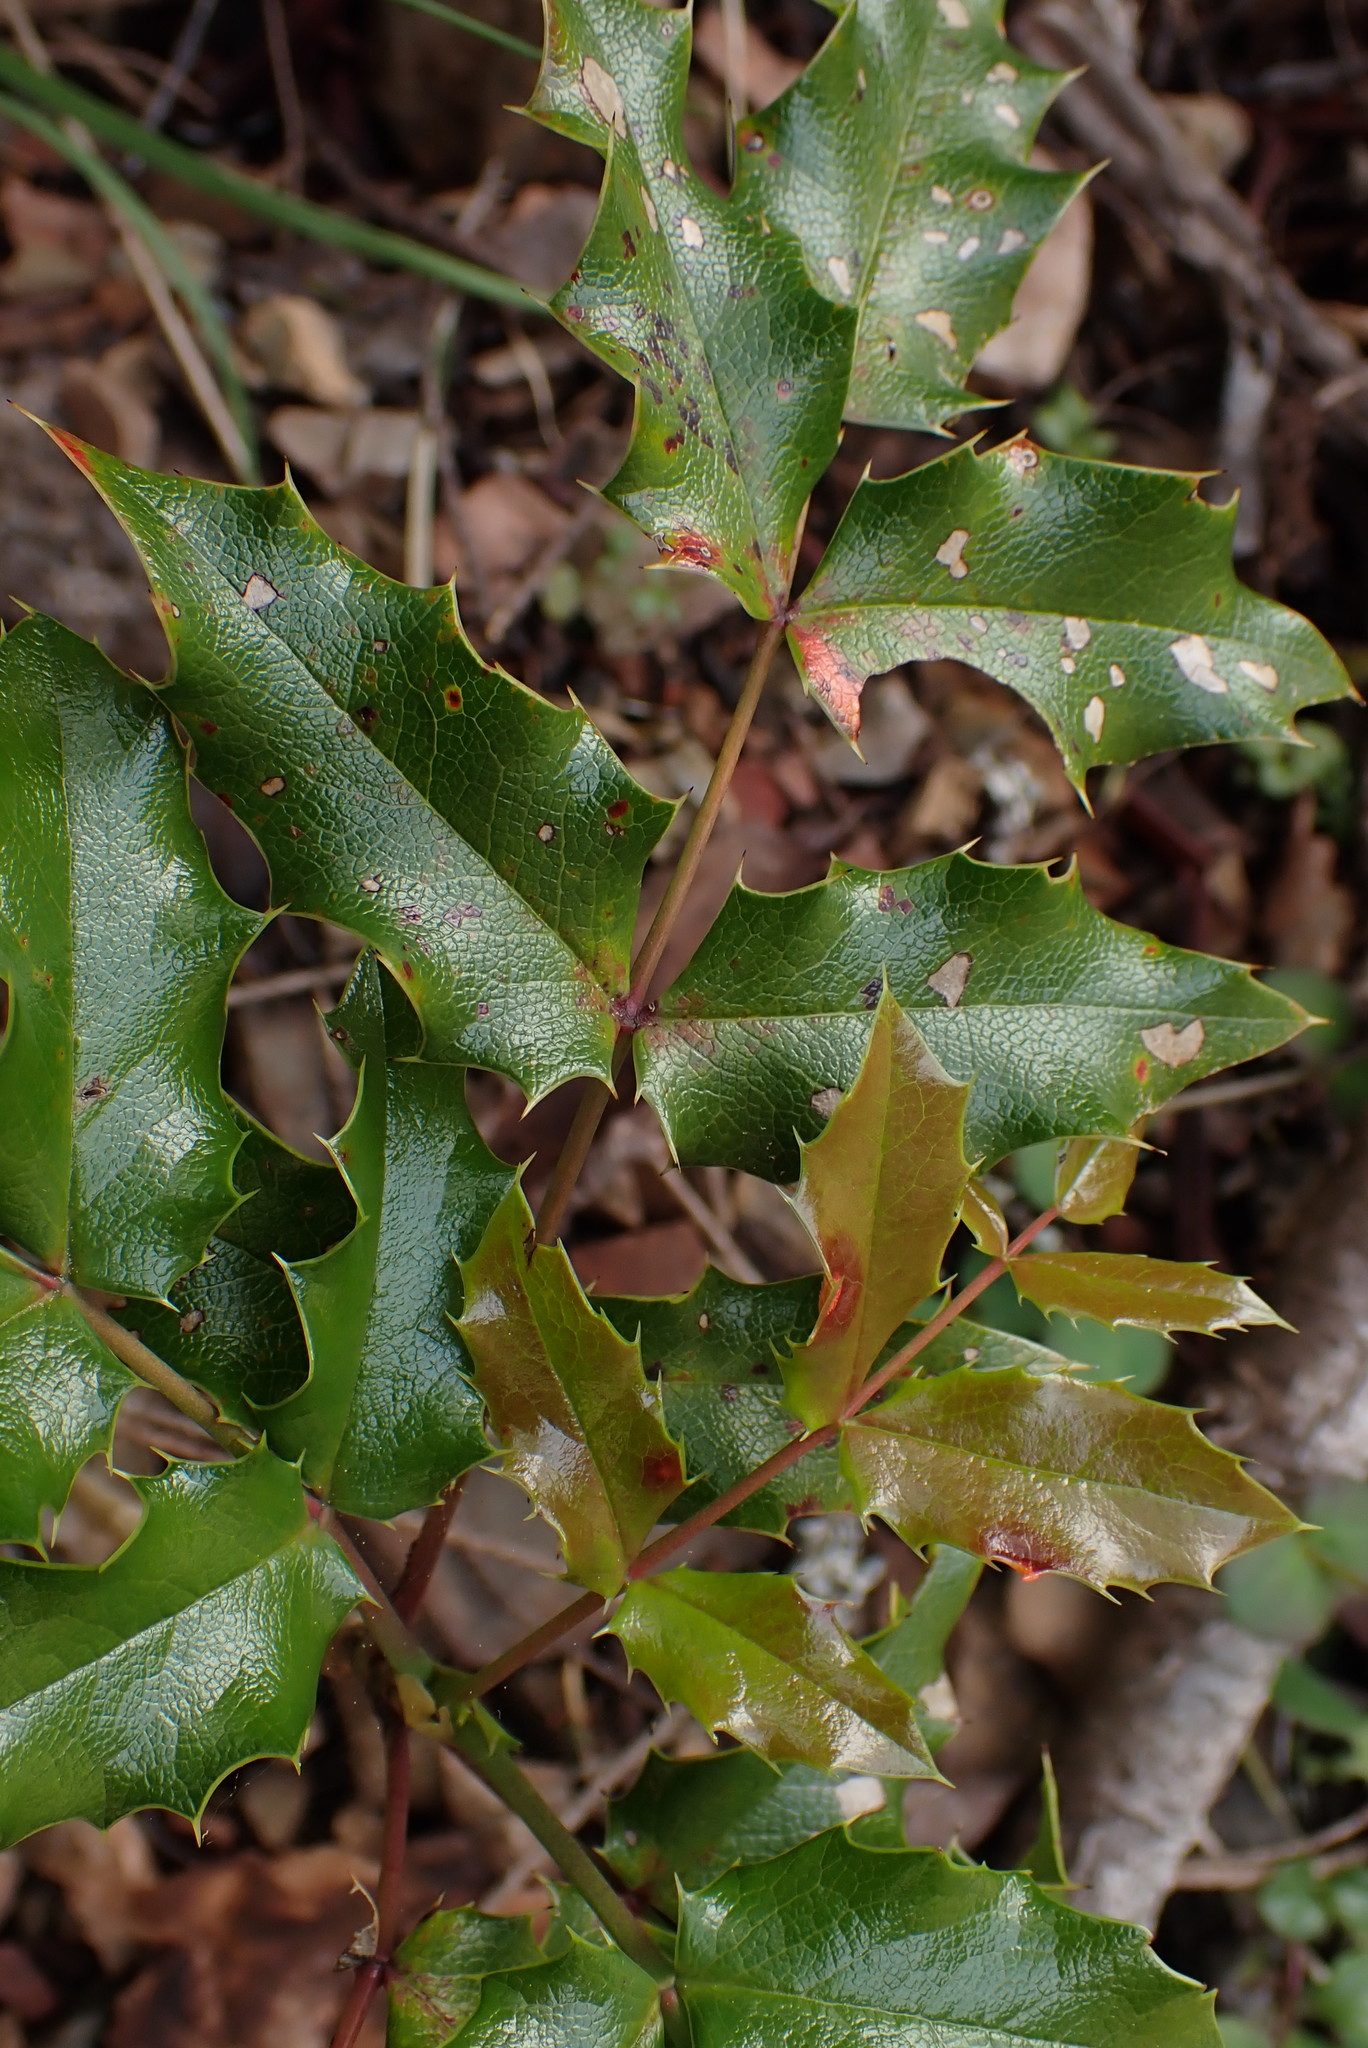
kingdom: Plantae
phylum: Tracheophyta
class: Magnoliopsida
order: Ranunculales
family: Berberidaceae
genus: Mahonia
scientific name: Mahonia aquifolium
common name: Oregon-grape
